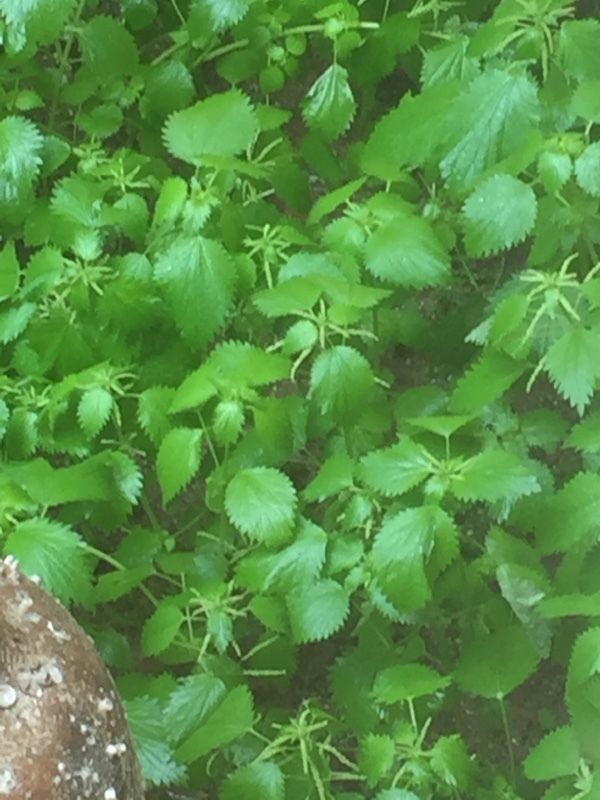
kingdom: Plantae
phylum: Tracheophyta
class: Magnoliopsida
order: Rosales
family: Urticaceae
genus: Urtica
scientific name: Urtica membranacea
